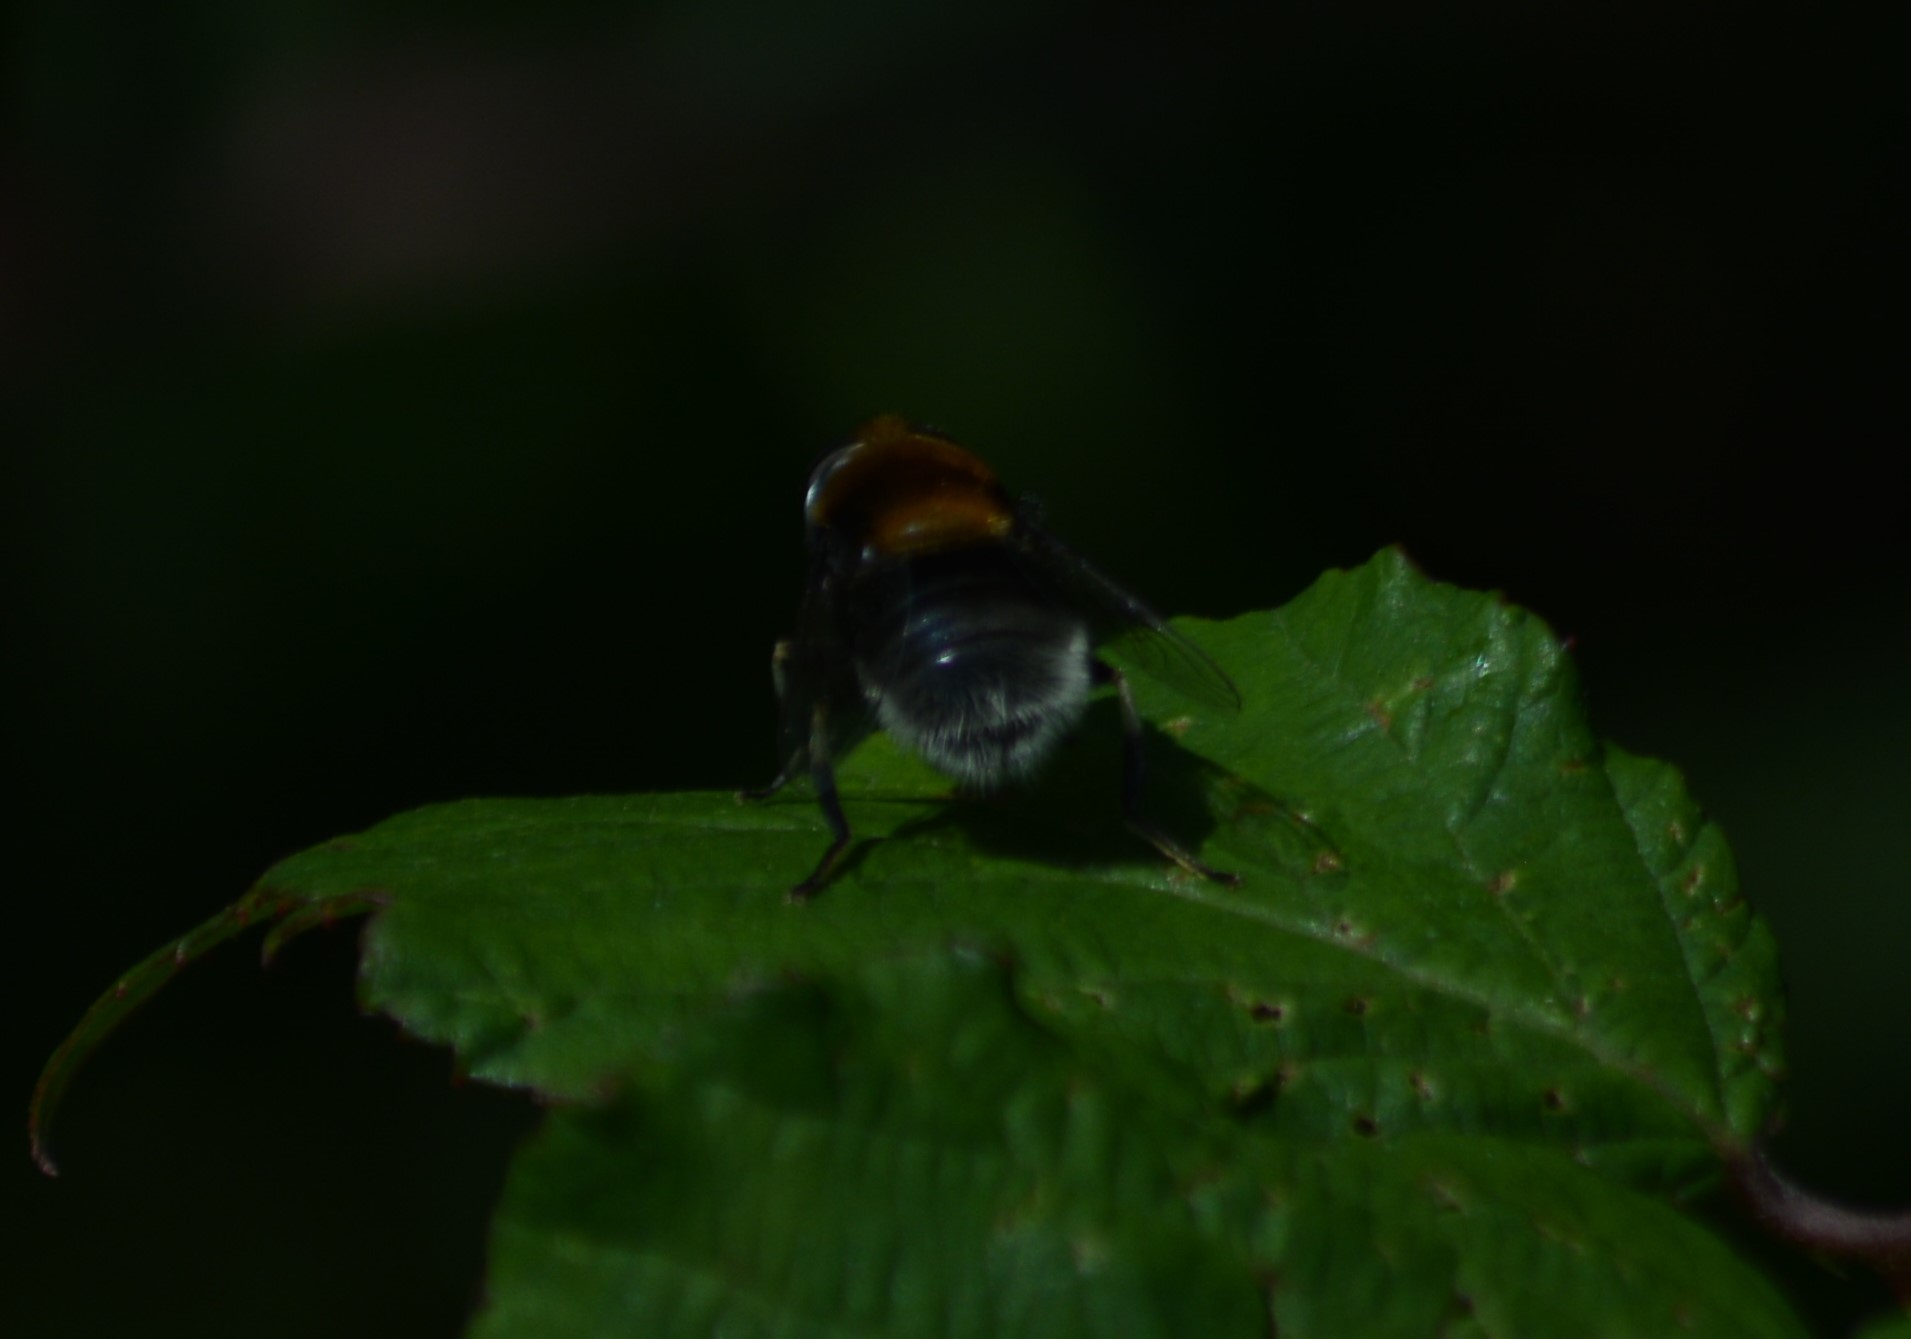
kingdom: Animalia
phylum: Arthropoda
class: Insecta
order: Diptera
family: Syrphidae
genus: Eristalis
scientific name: Eristalis intricaria
